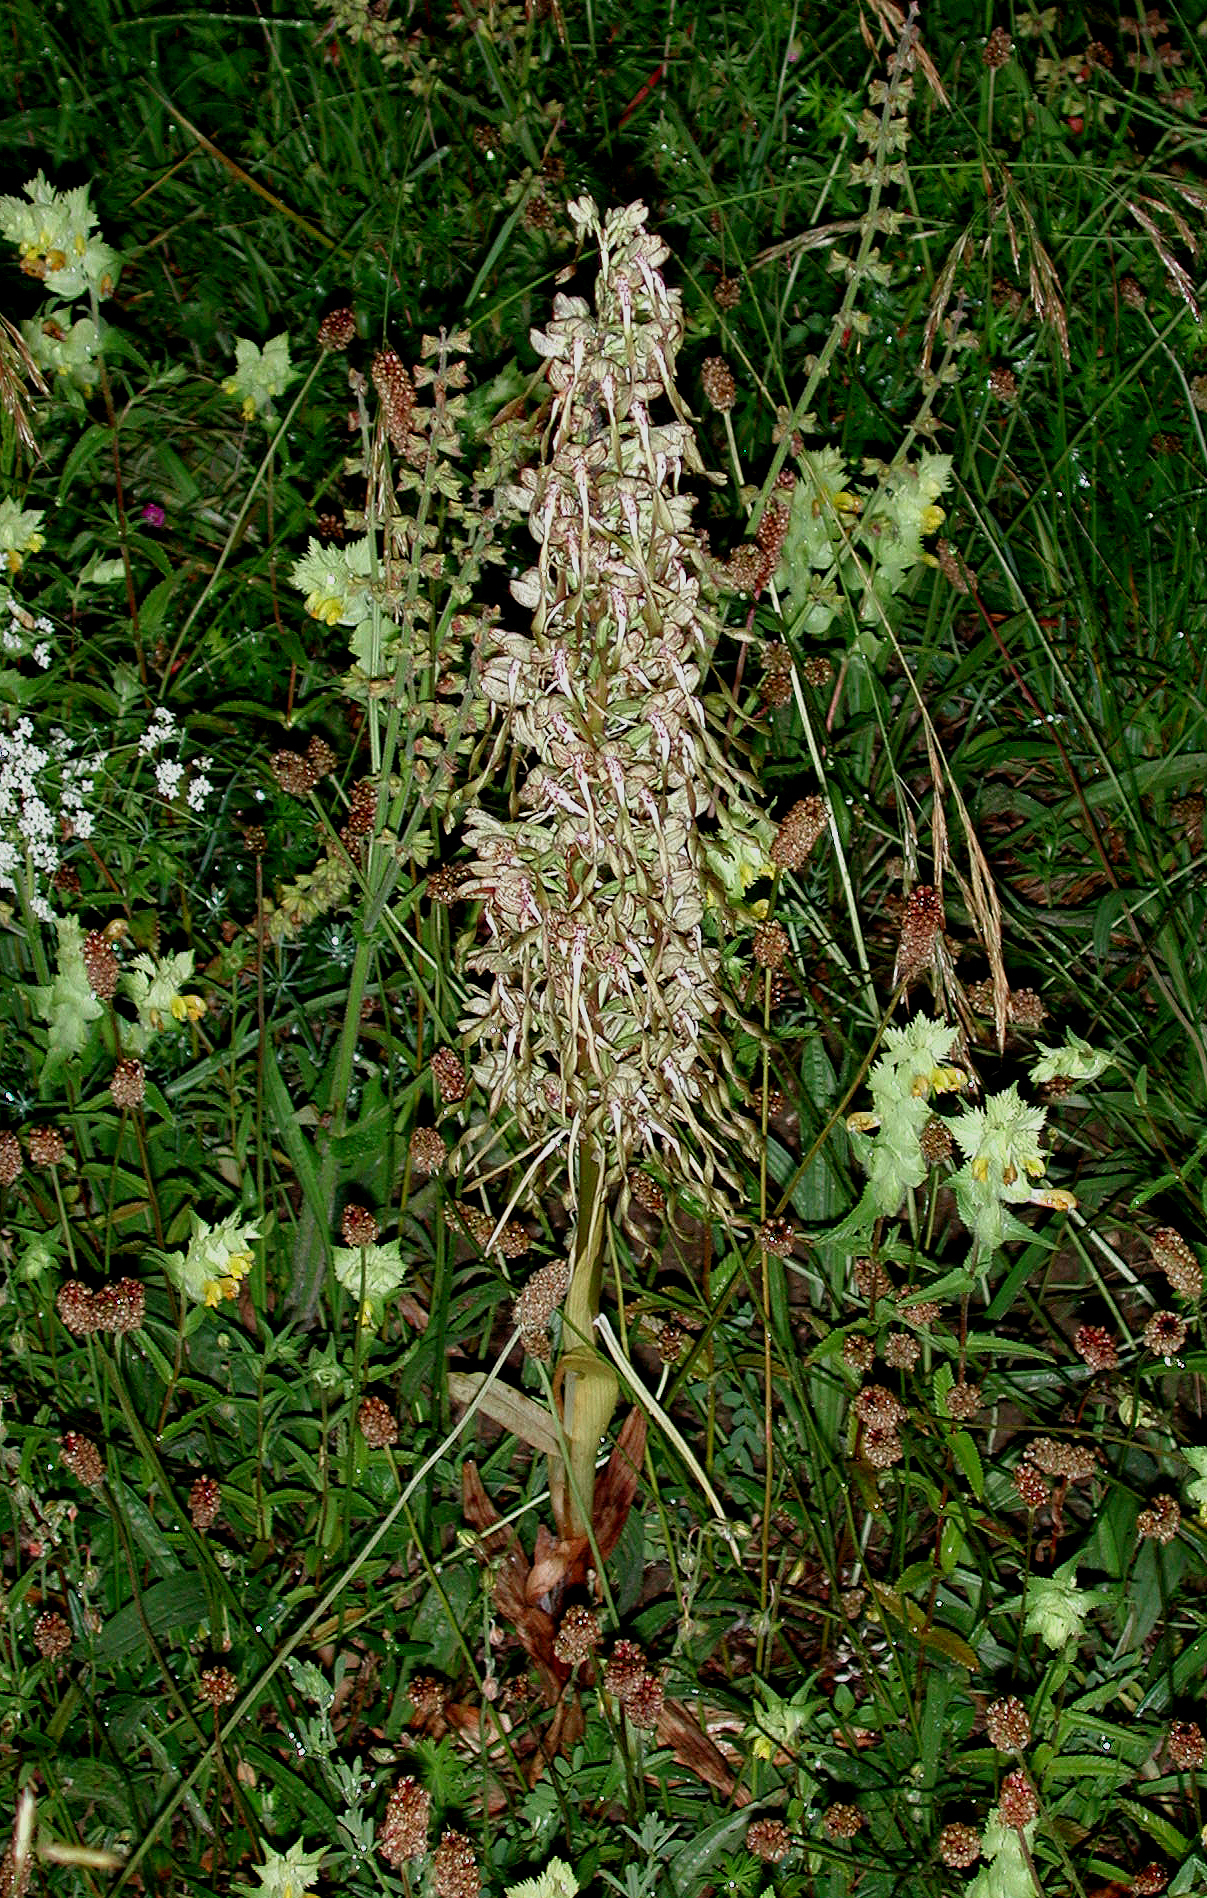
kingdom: Plantae
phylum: Tracheophyta
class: Liliopsida
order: Asparagales
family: Orchidaceae
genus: Himantoglossum
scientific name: Himantoglossum hircinum
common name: Lizard orchid
